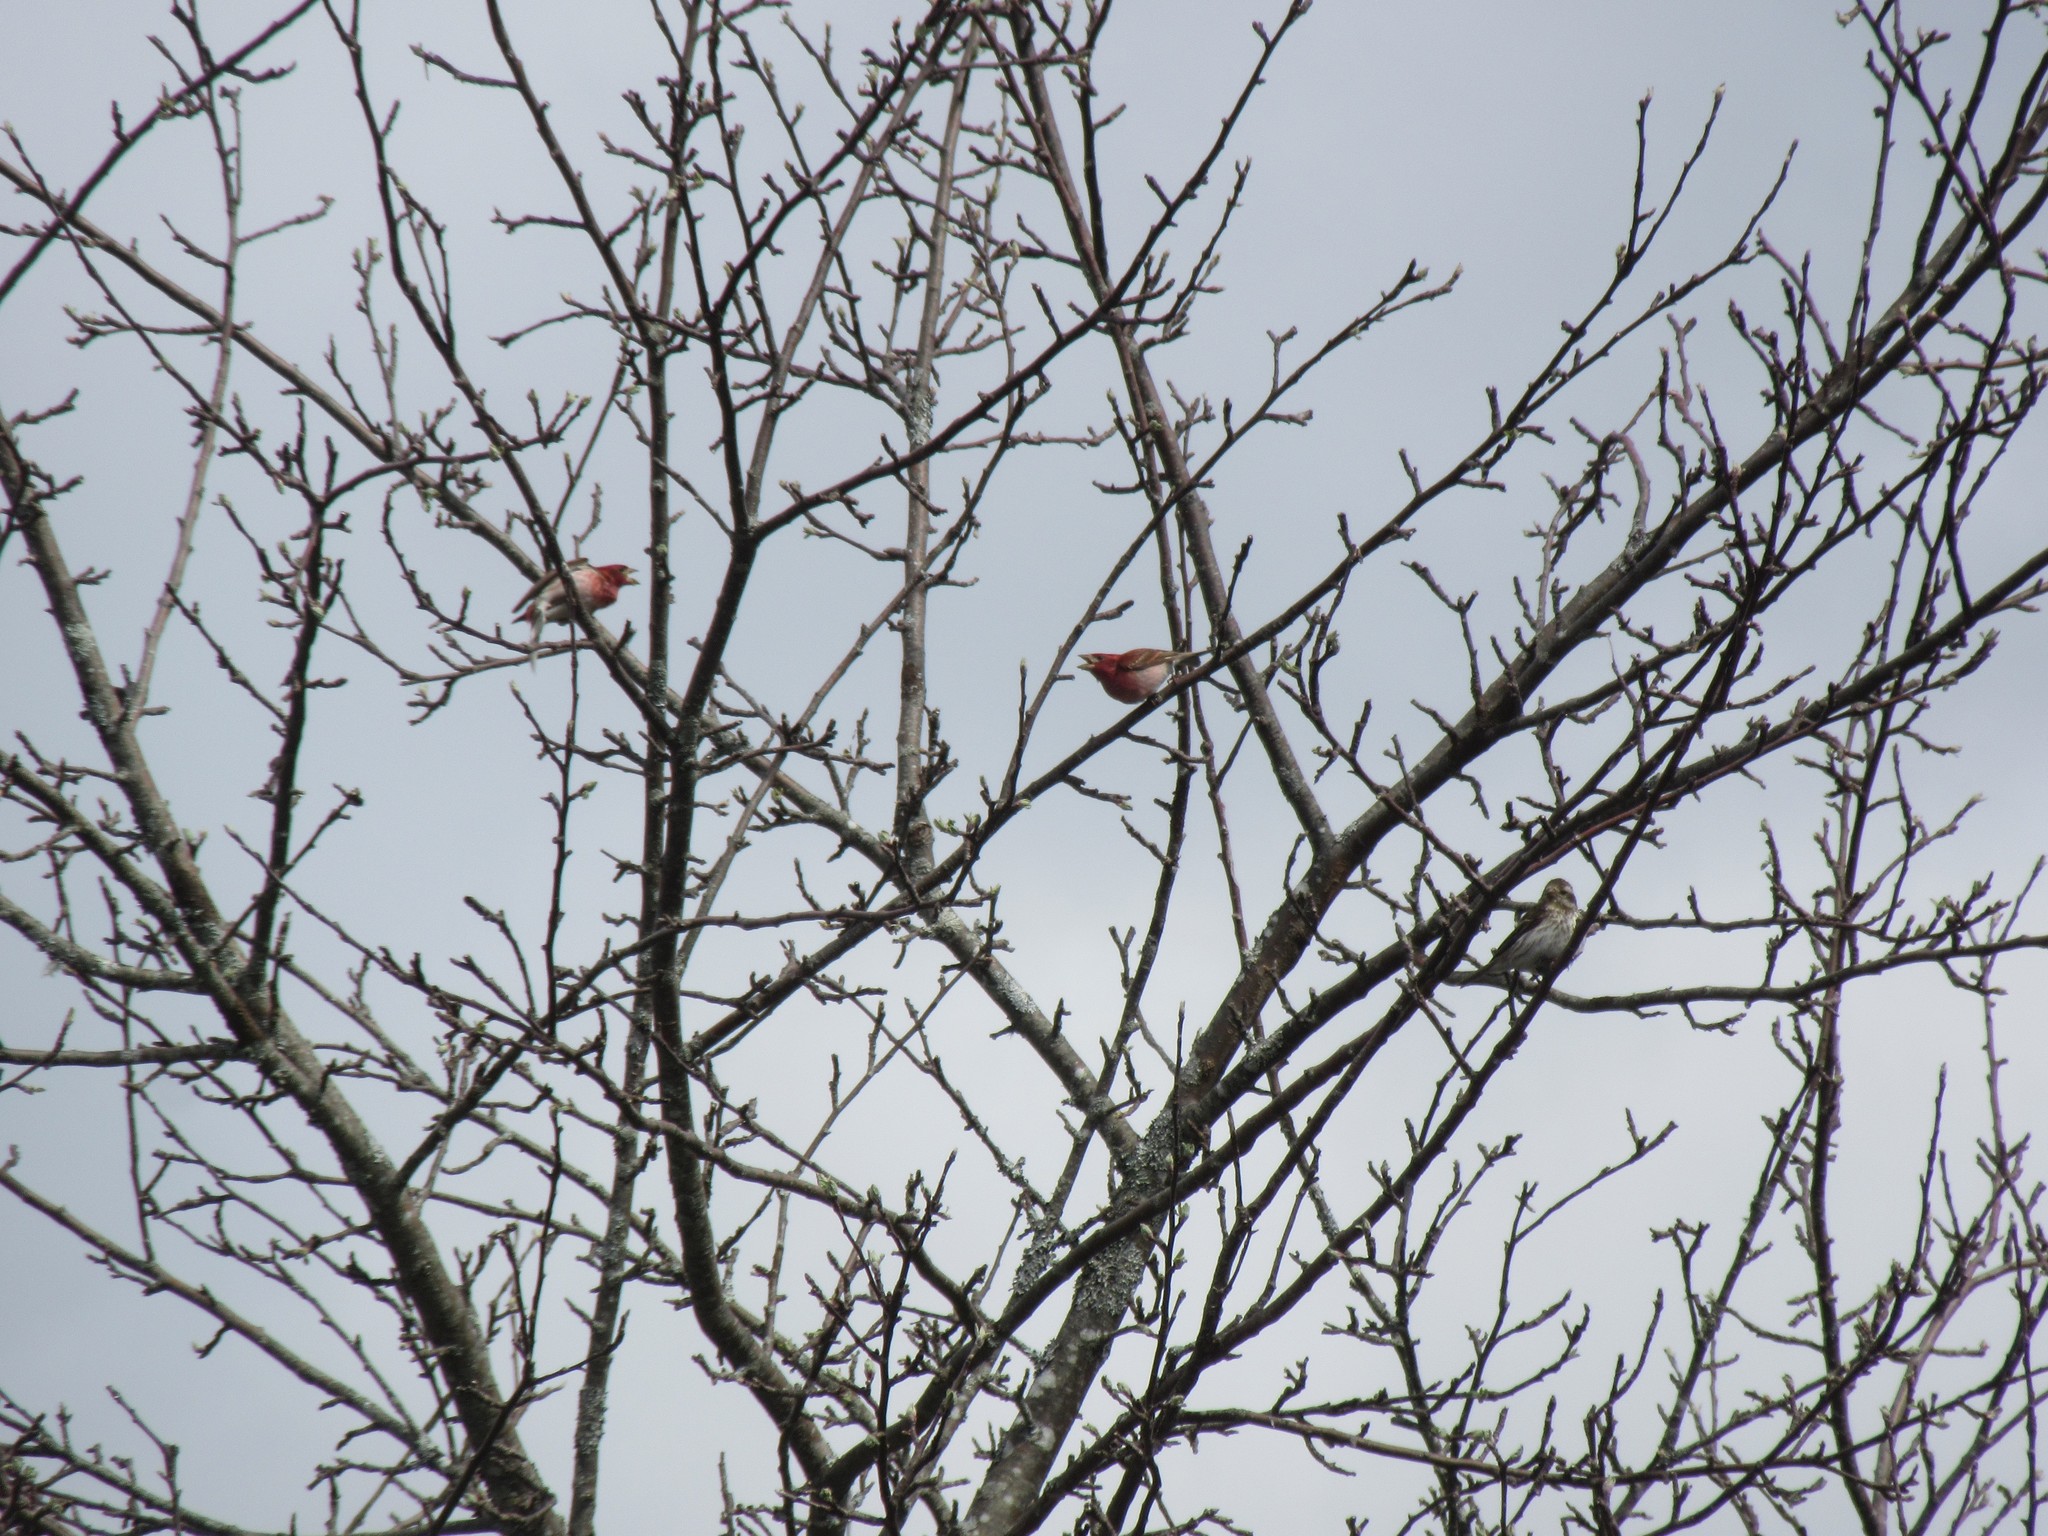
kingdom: Animalia
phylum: Chordata
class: Aves
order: Passeriformes
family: Fringillidae
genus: Haemorhous
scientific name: Haemorhous purpureus
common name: Purple finch
